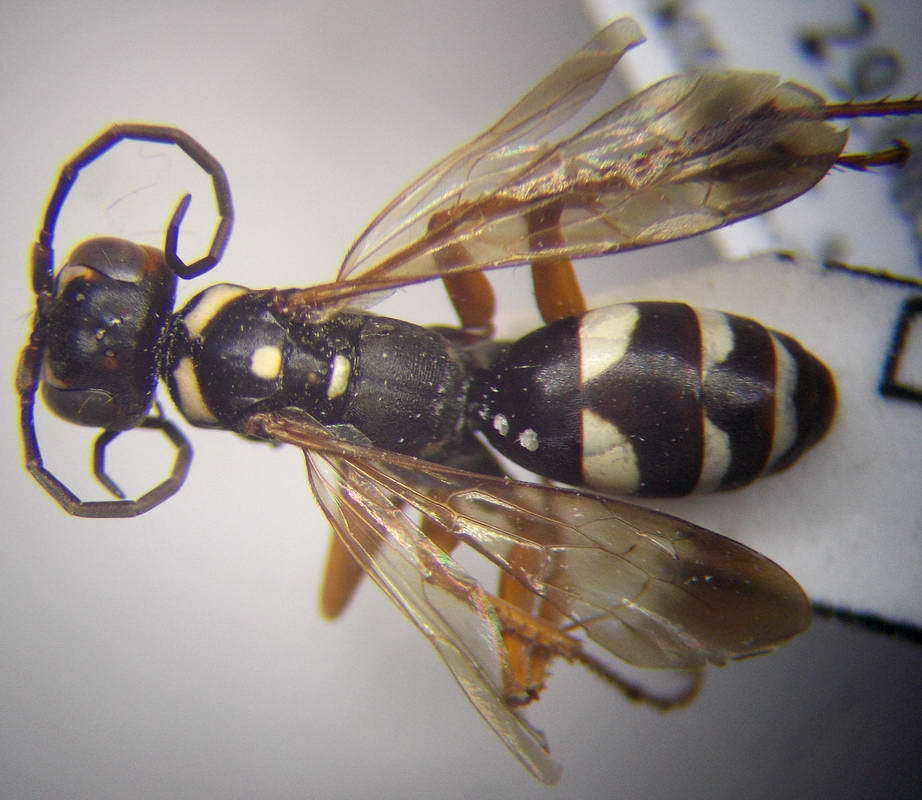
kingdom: Animalia
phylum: Arthropoda
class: Insecta
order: Hymenoptera
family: Pompilidae
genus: Cryptocheilus
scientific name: Cryptocheilus variabilis
